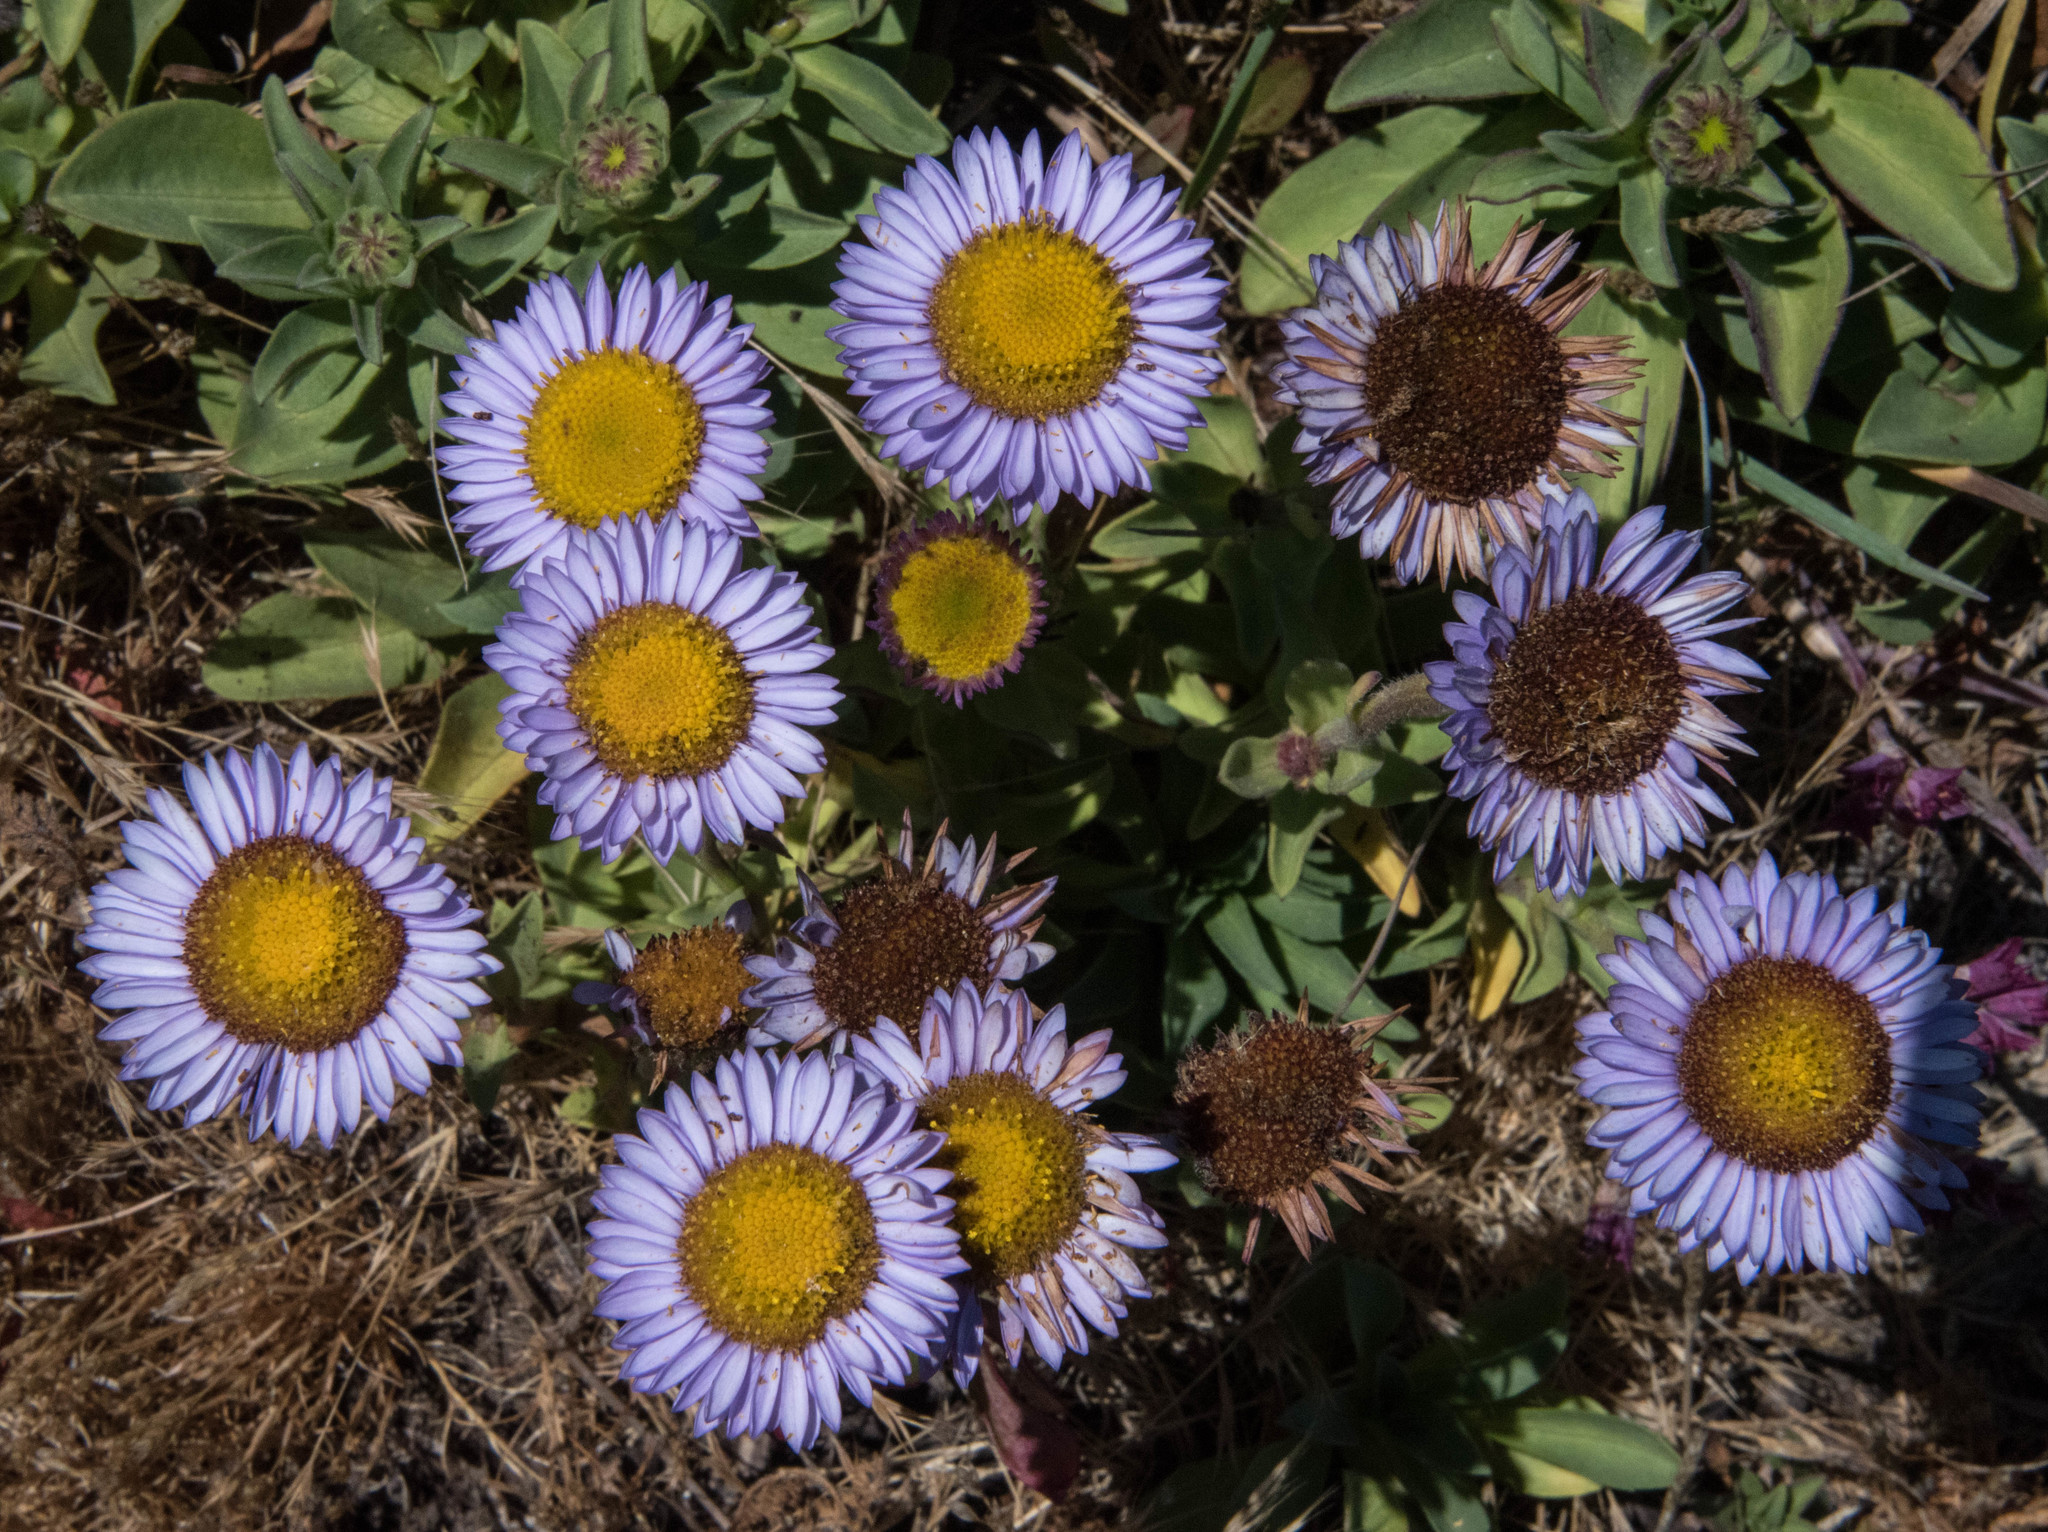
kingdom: Plantae
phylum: Tracheophyta
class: Magnoliopsida
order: Asterales
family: Asteraceae
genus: Erigeron
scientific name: Erigeron glaucus
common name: Seaside daisy
